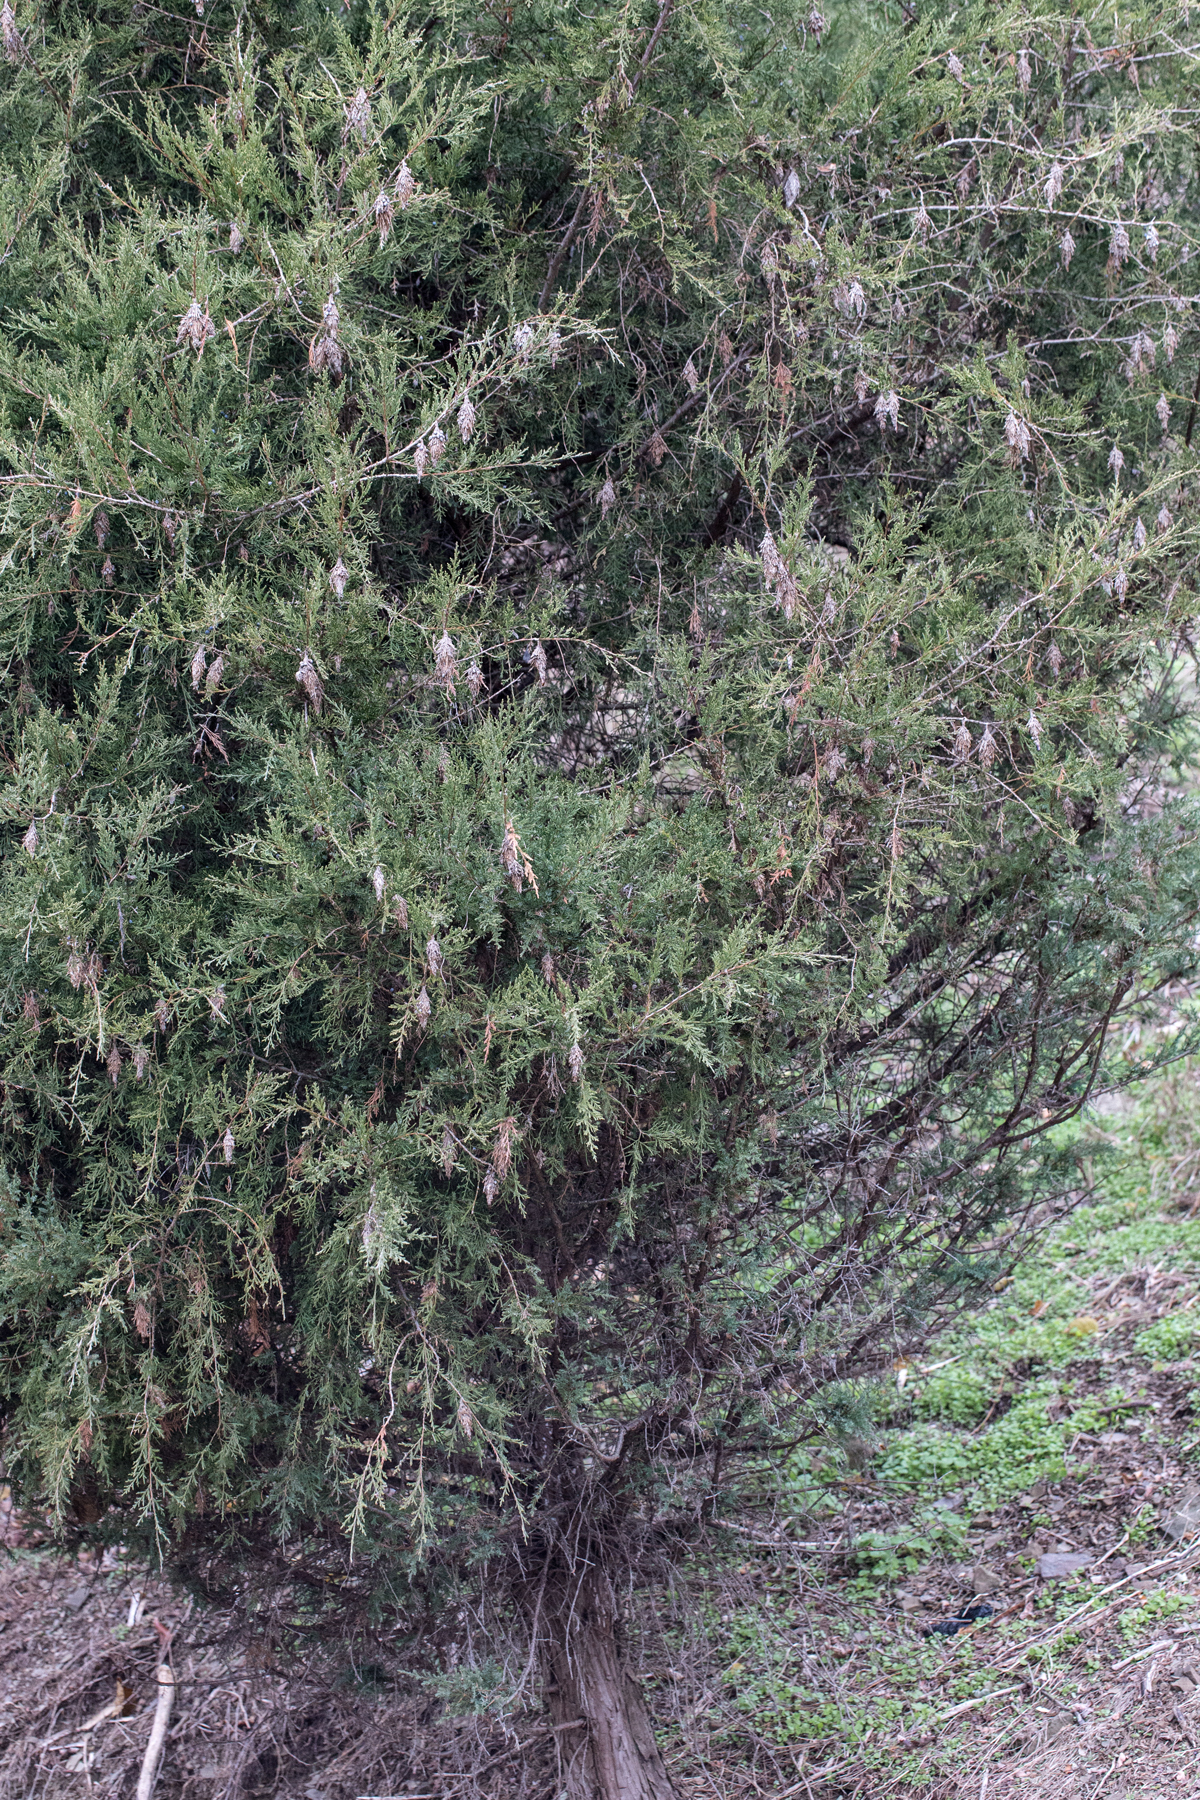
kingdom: Plantae
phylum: Tracheophyta
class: Pinopsida
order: Pinales
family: Cupressaceae
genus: Juniperus
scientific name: Juniperus virginiana
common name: Red juniper
